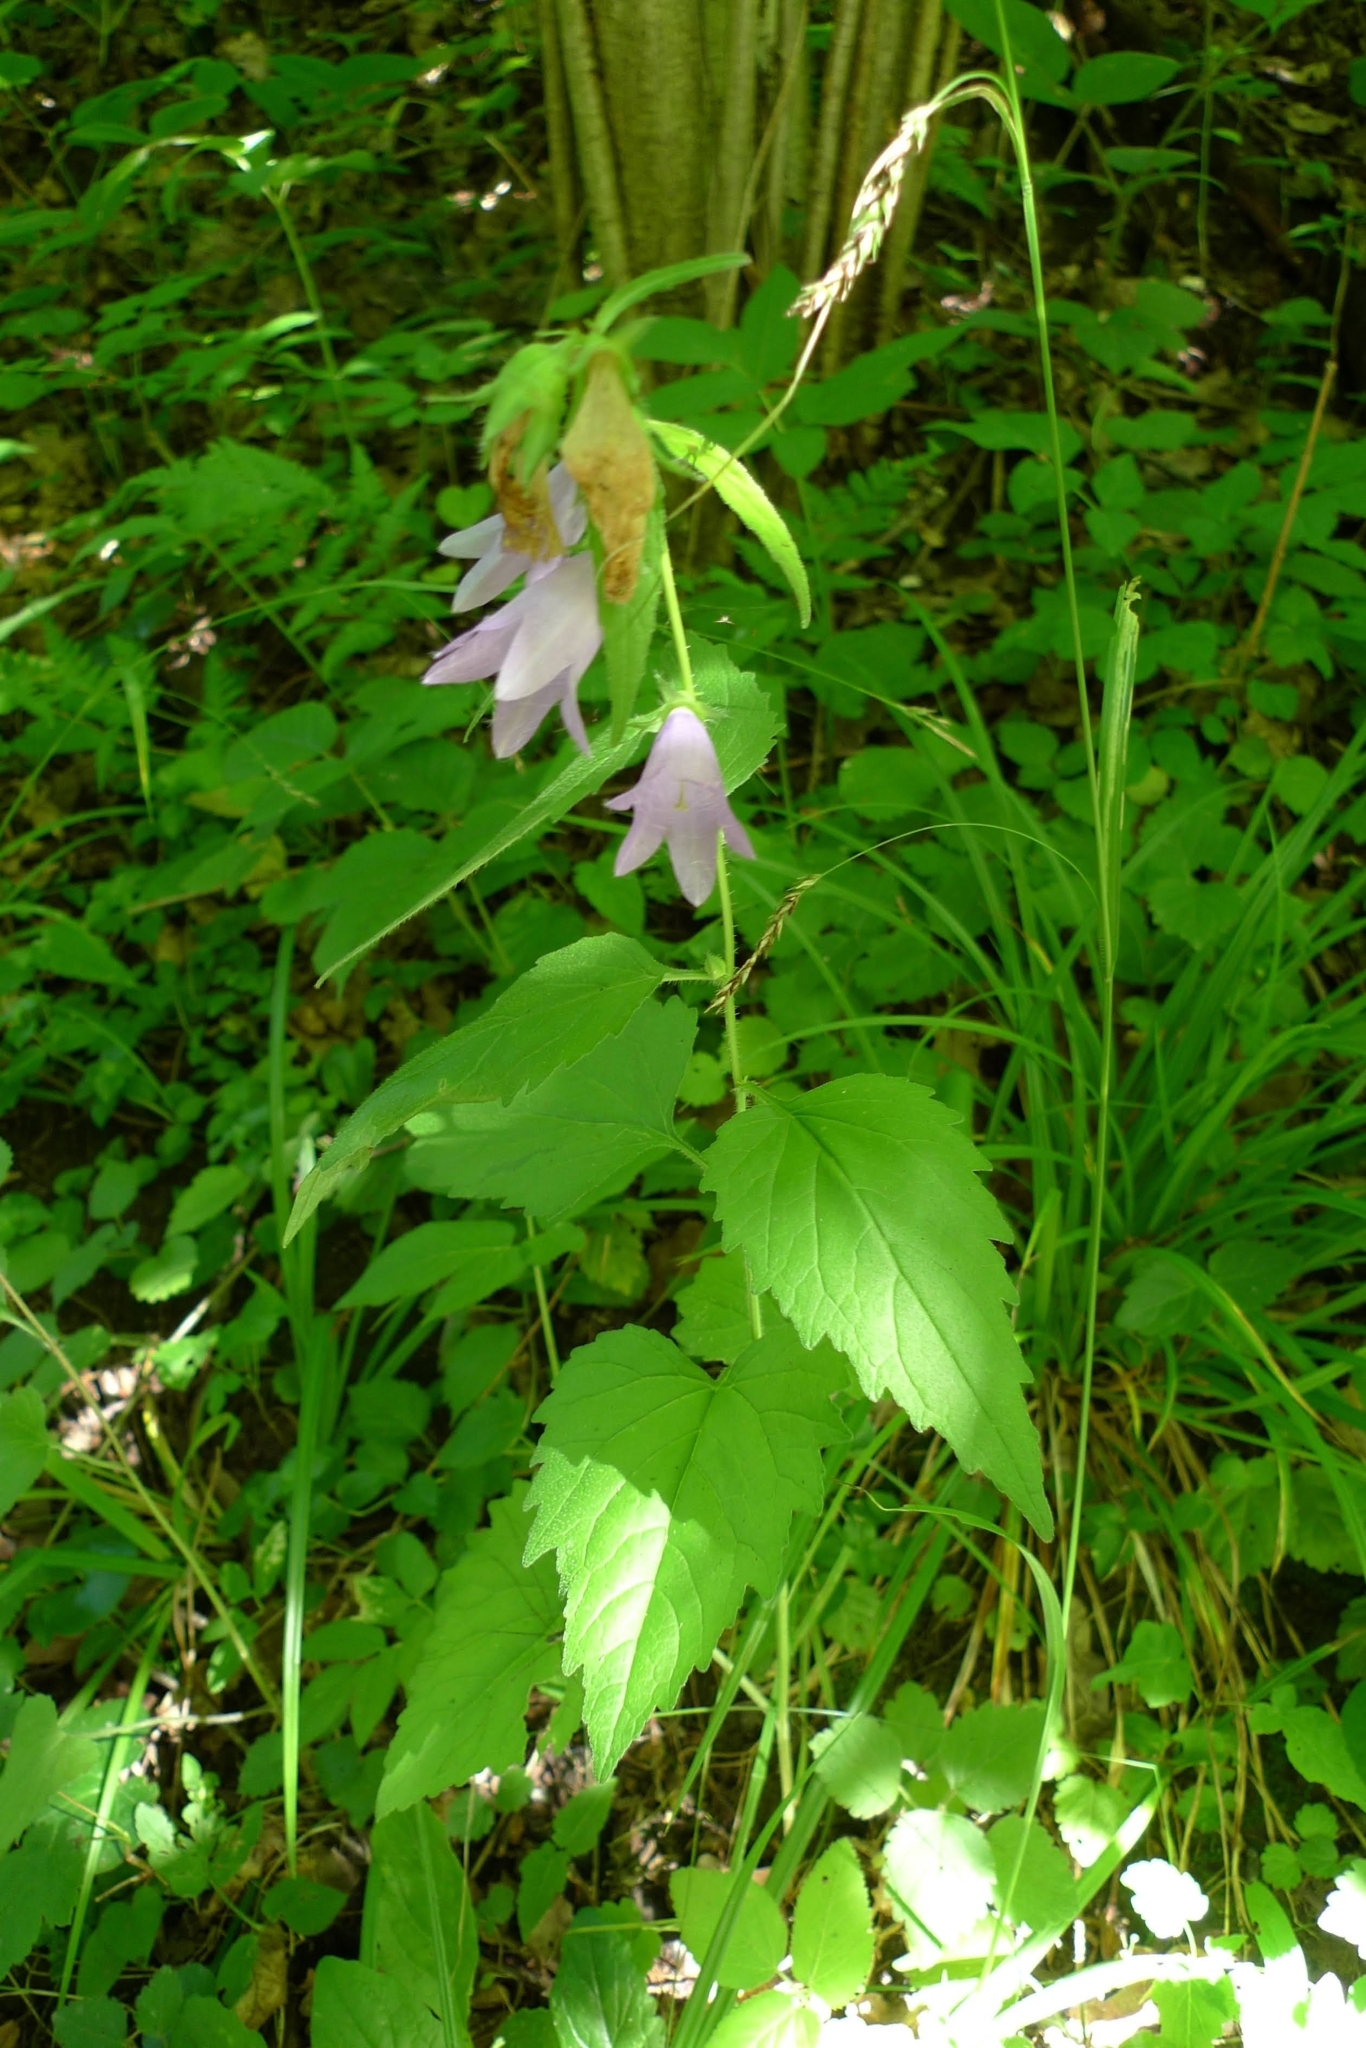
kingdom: Plantae
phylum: Tracheophyta
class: Magnoliopsida
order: Asterales
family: Campanulaceae
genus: Campanula
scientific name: Campanula trachelium
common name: Nettle-leaved bellflower
